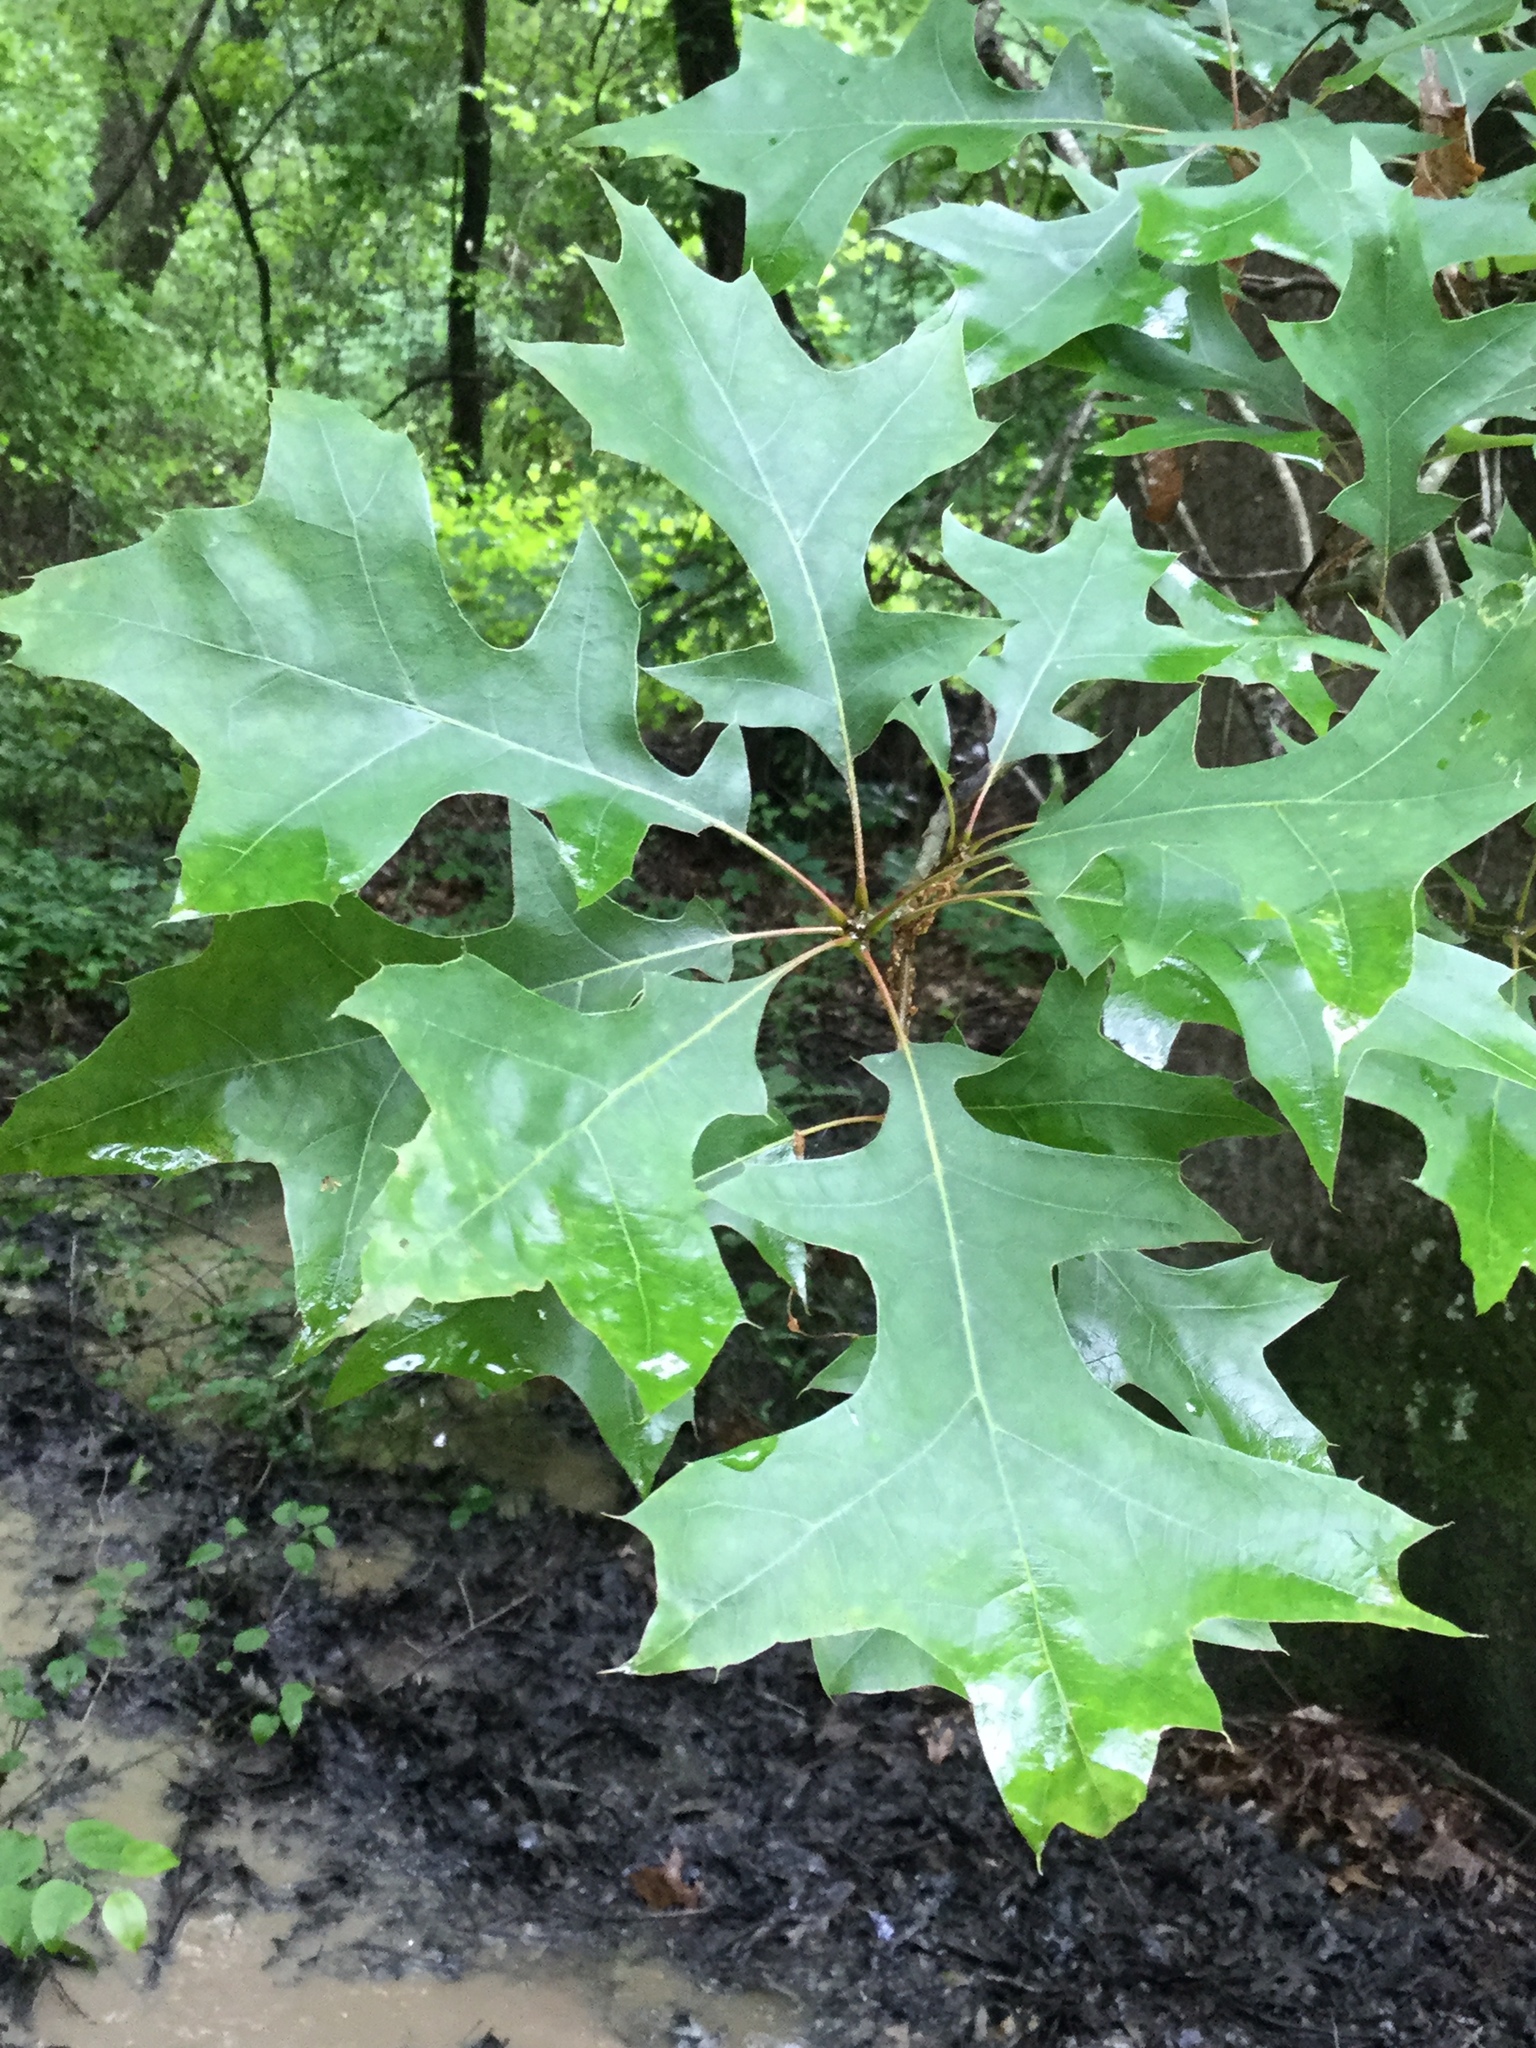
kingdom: Plantae
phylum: Tracheophyta
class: Magnoliopsida
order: Fagales
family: Fagaceae
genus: Quercus
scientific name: Quercus texana
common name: Nuttall oak
